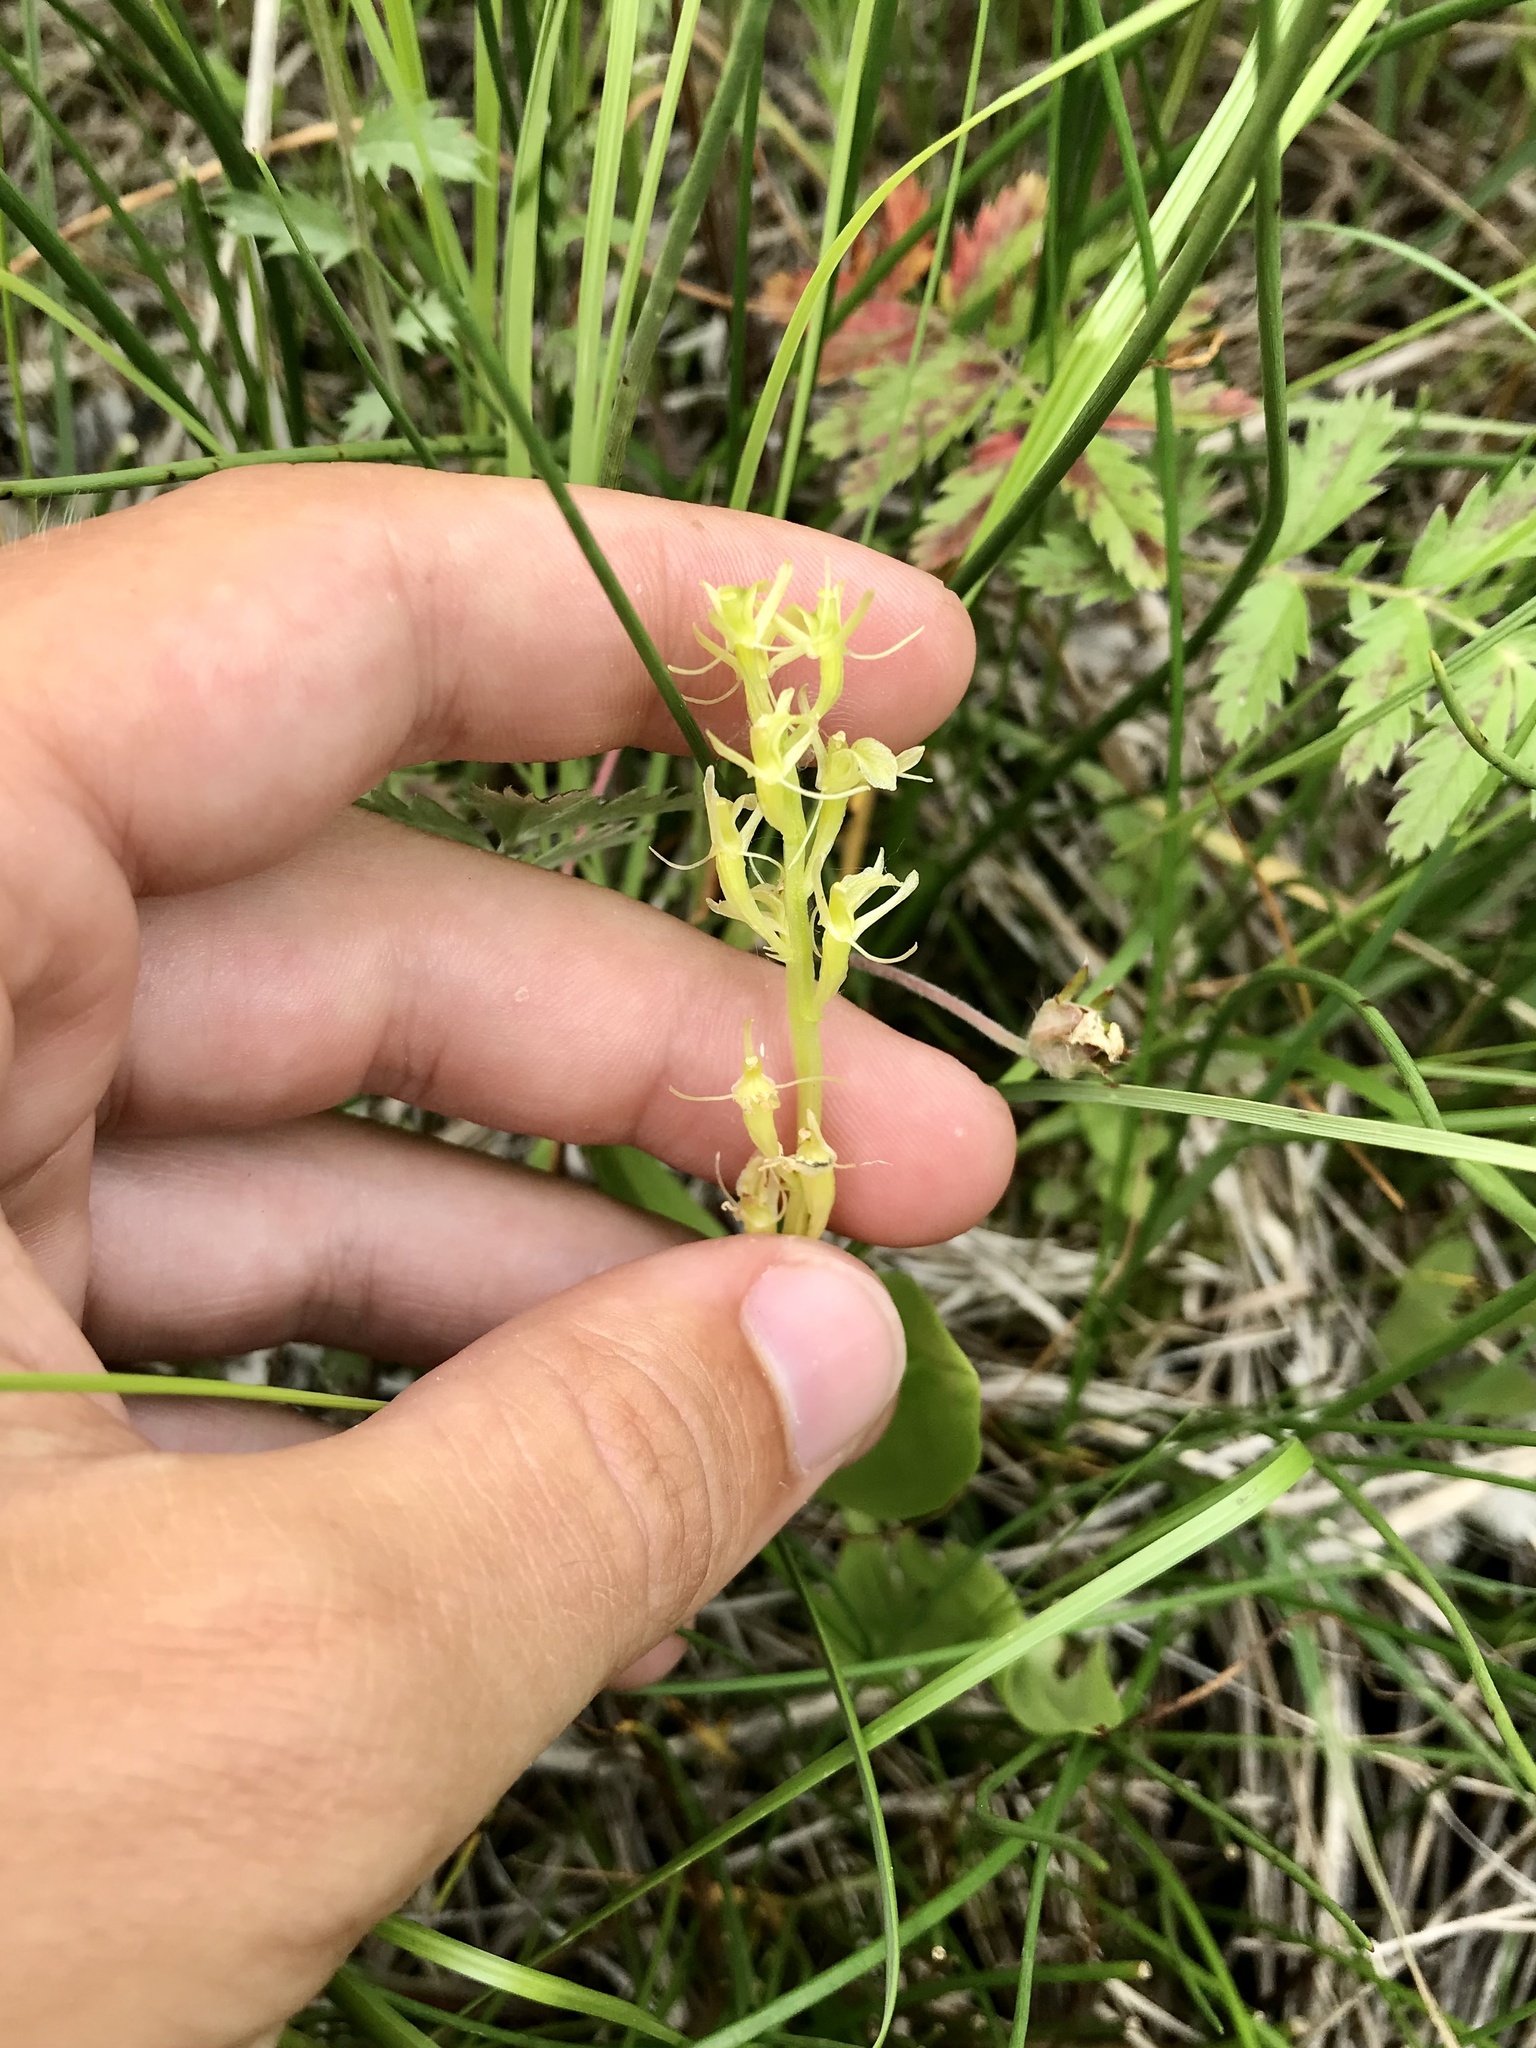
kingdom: Animalia
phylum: Arthropoda
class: Insecta
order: Coleoptera
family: Curculionidae
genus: Liparis
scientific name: Liparis loeselii
